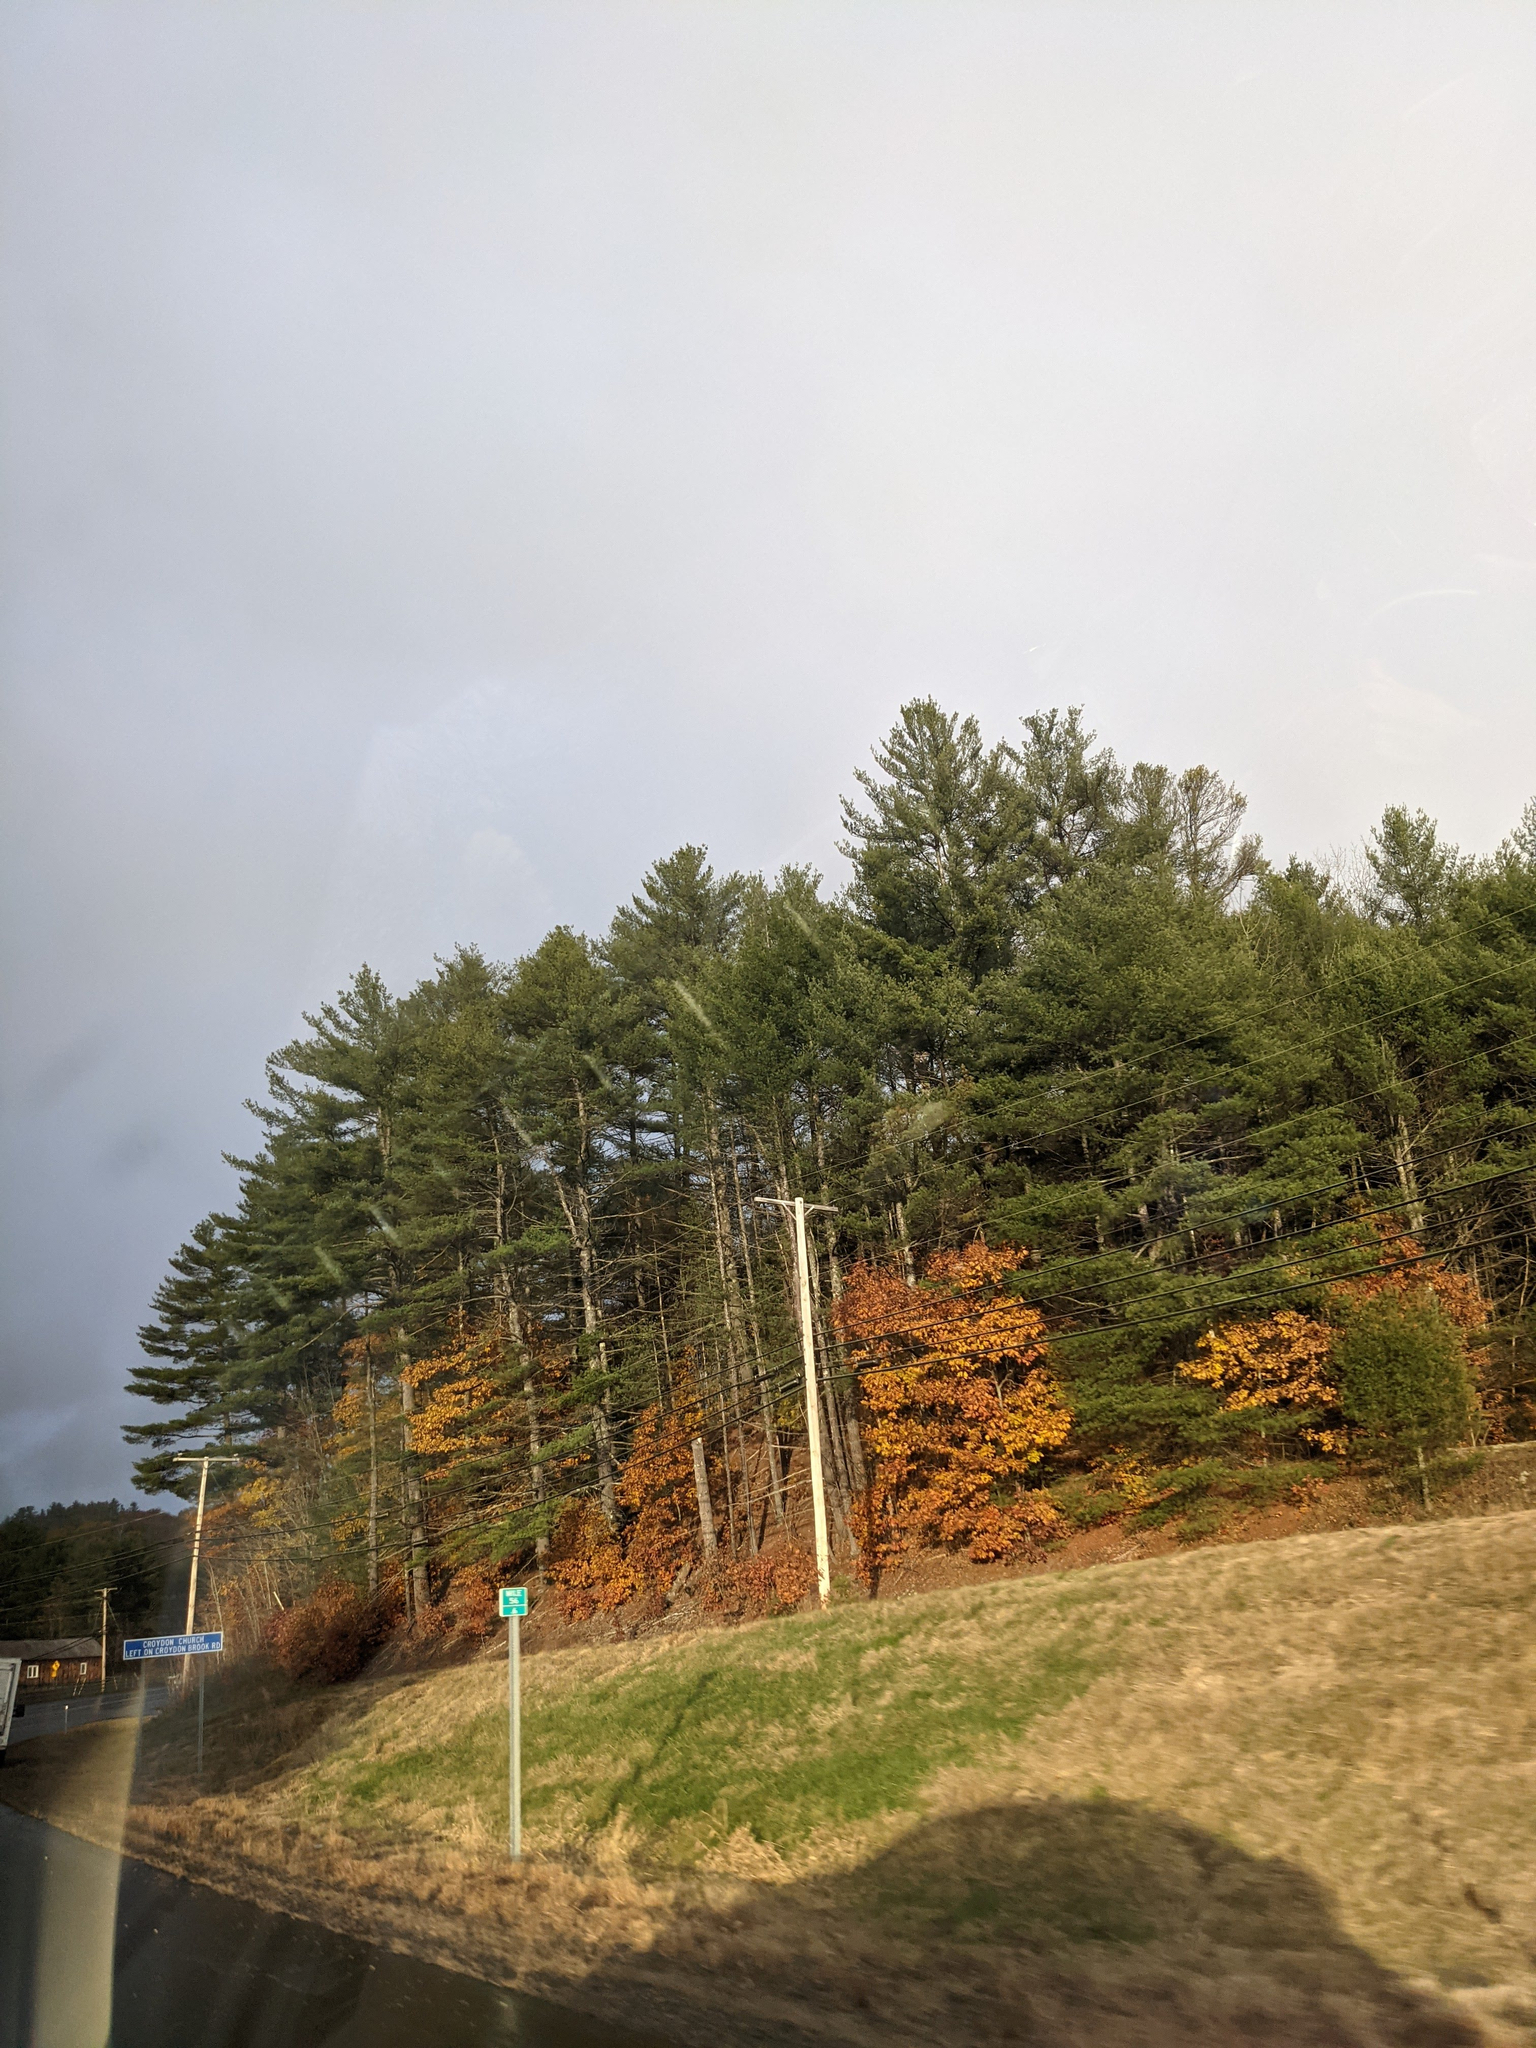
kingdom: Plantae
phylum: Tracheophyta
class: Pinopsida
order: Pinales
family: Pinaceae
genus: Pinus
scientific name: Pinus strobus
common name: Weymouth pine
